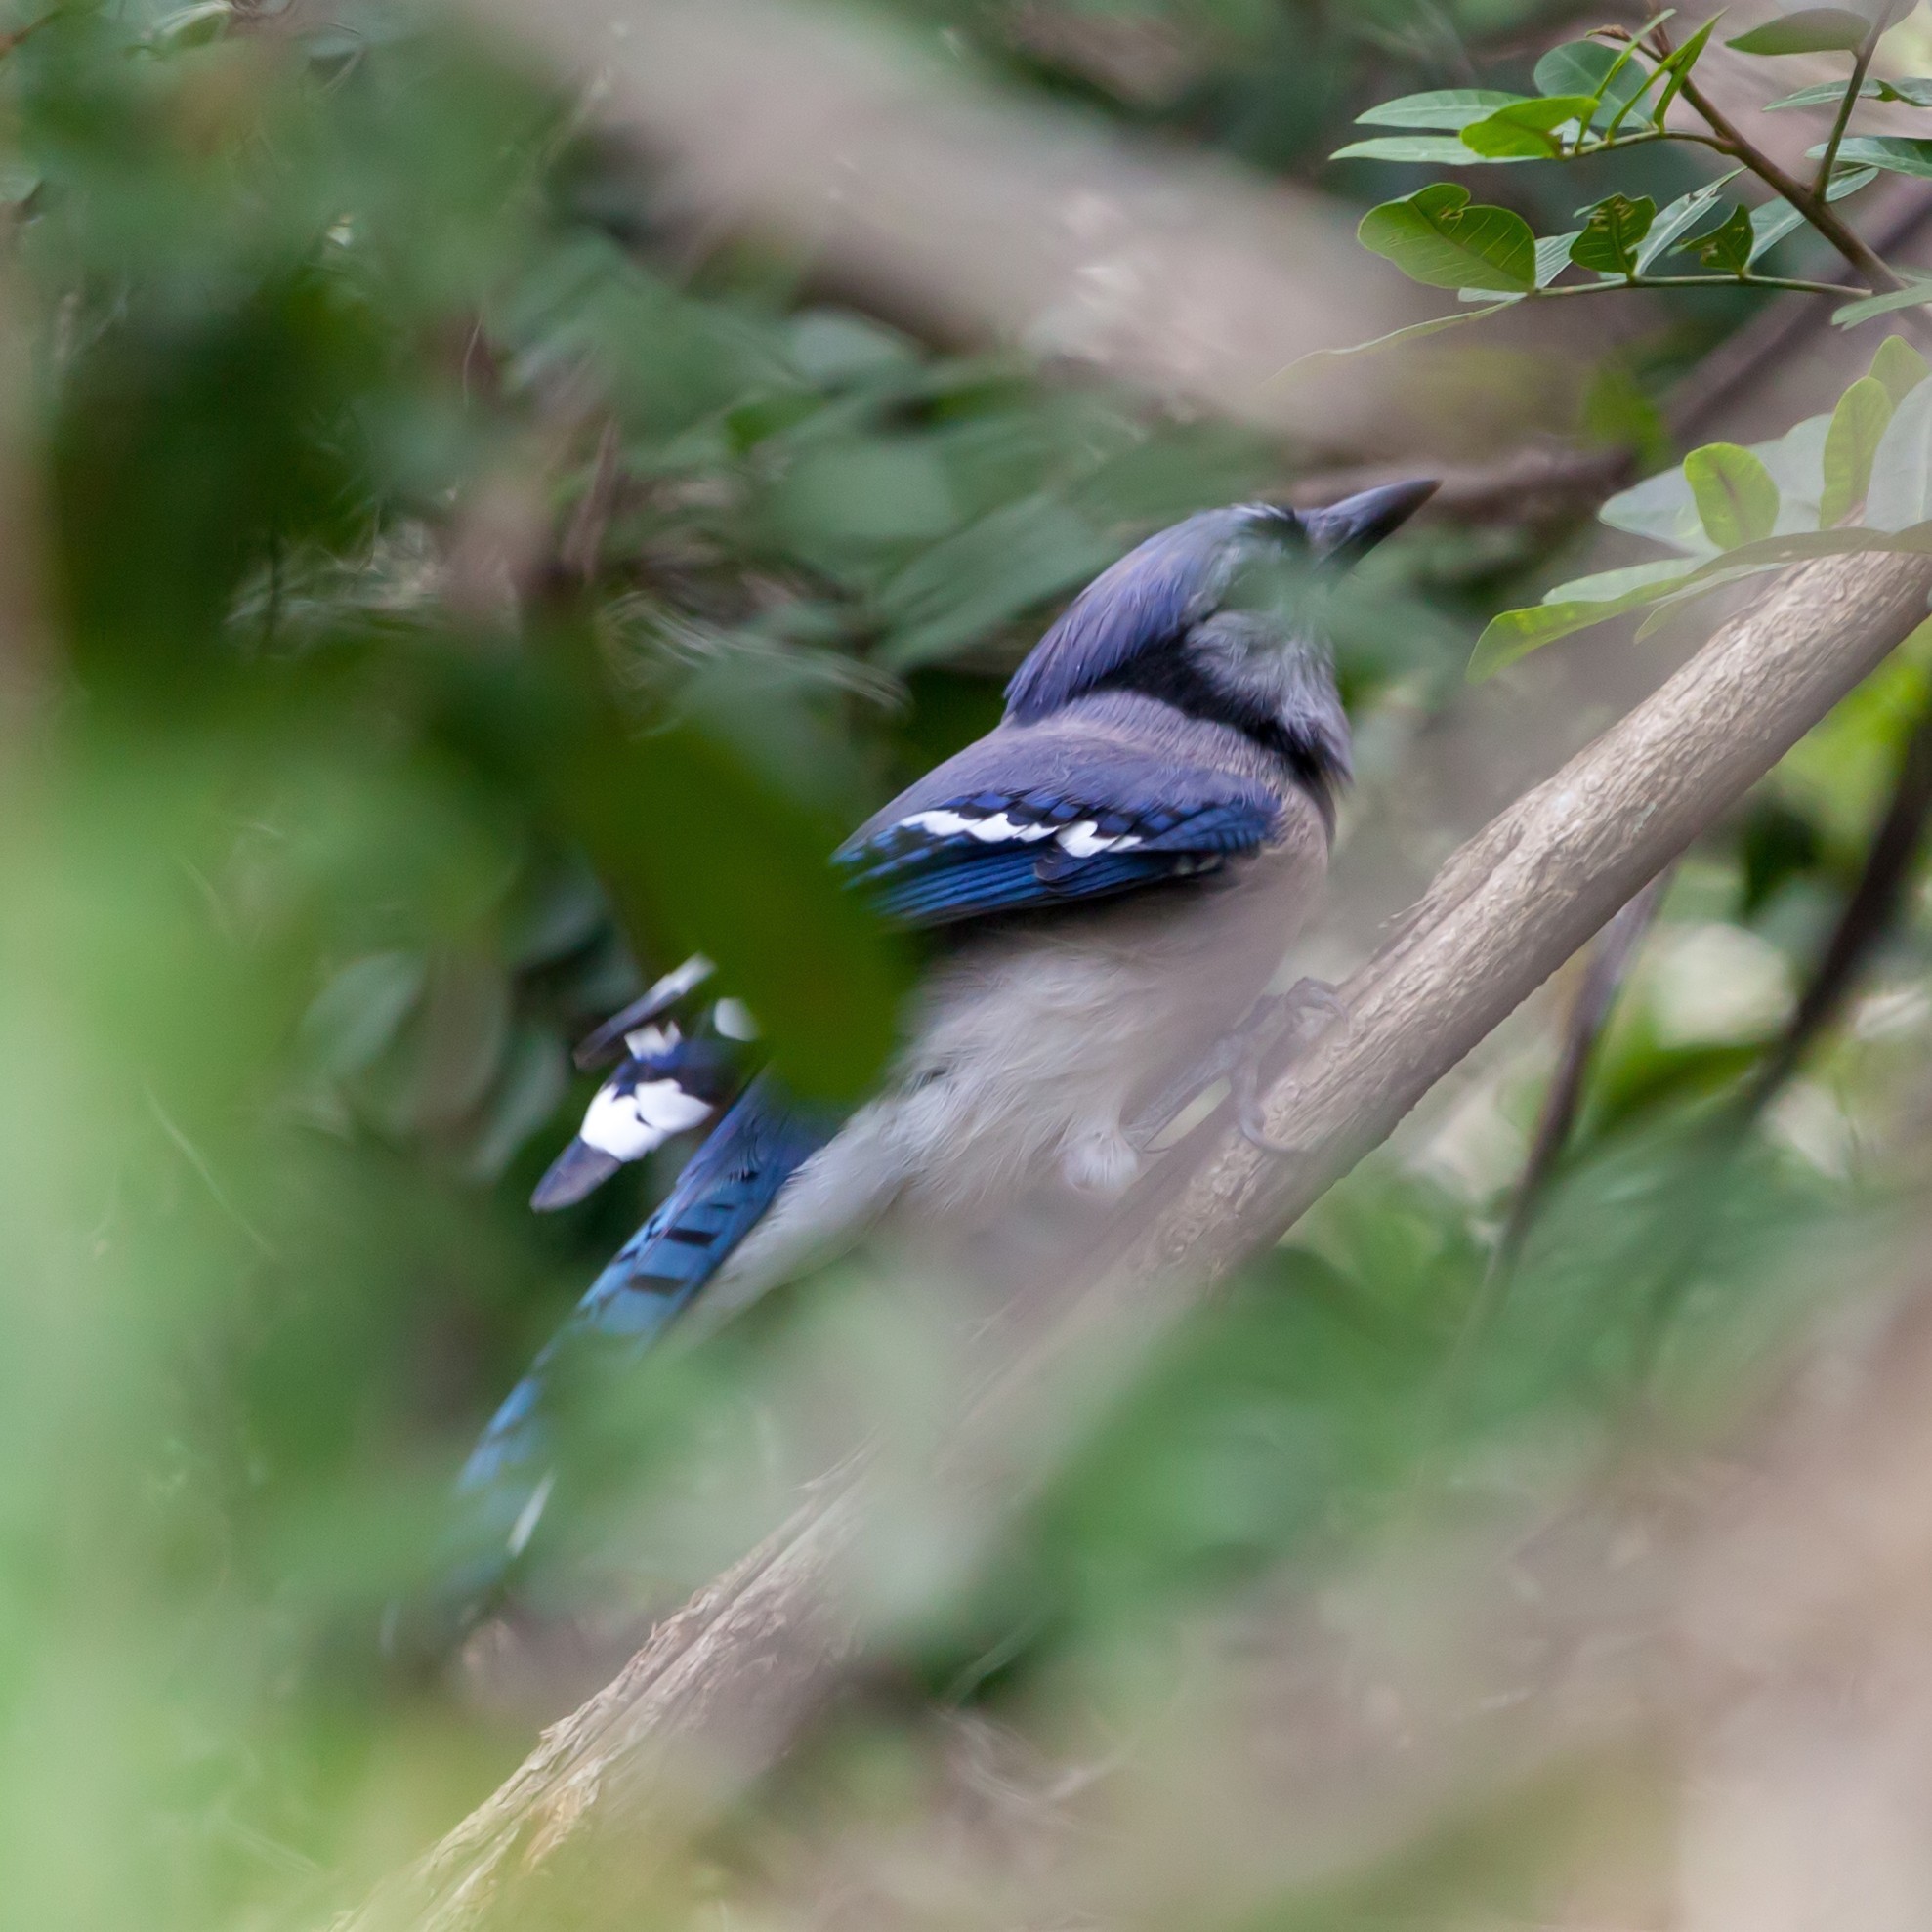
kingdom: Animalia
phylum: Chordata
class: Aves
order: Passeriformes
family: Corvidae
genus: Cyanocitta
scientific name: Cyanocitta cristata
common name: Blue jay
